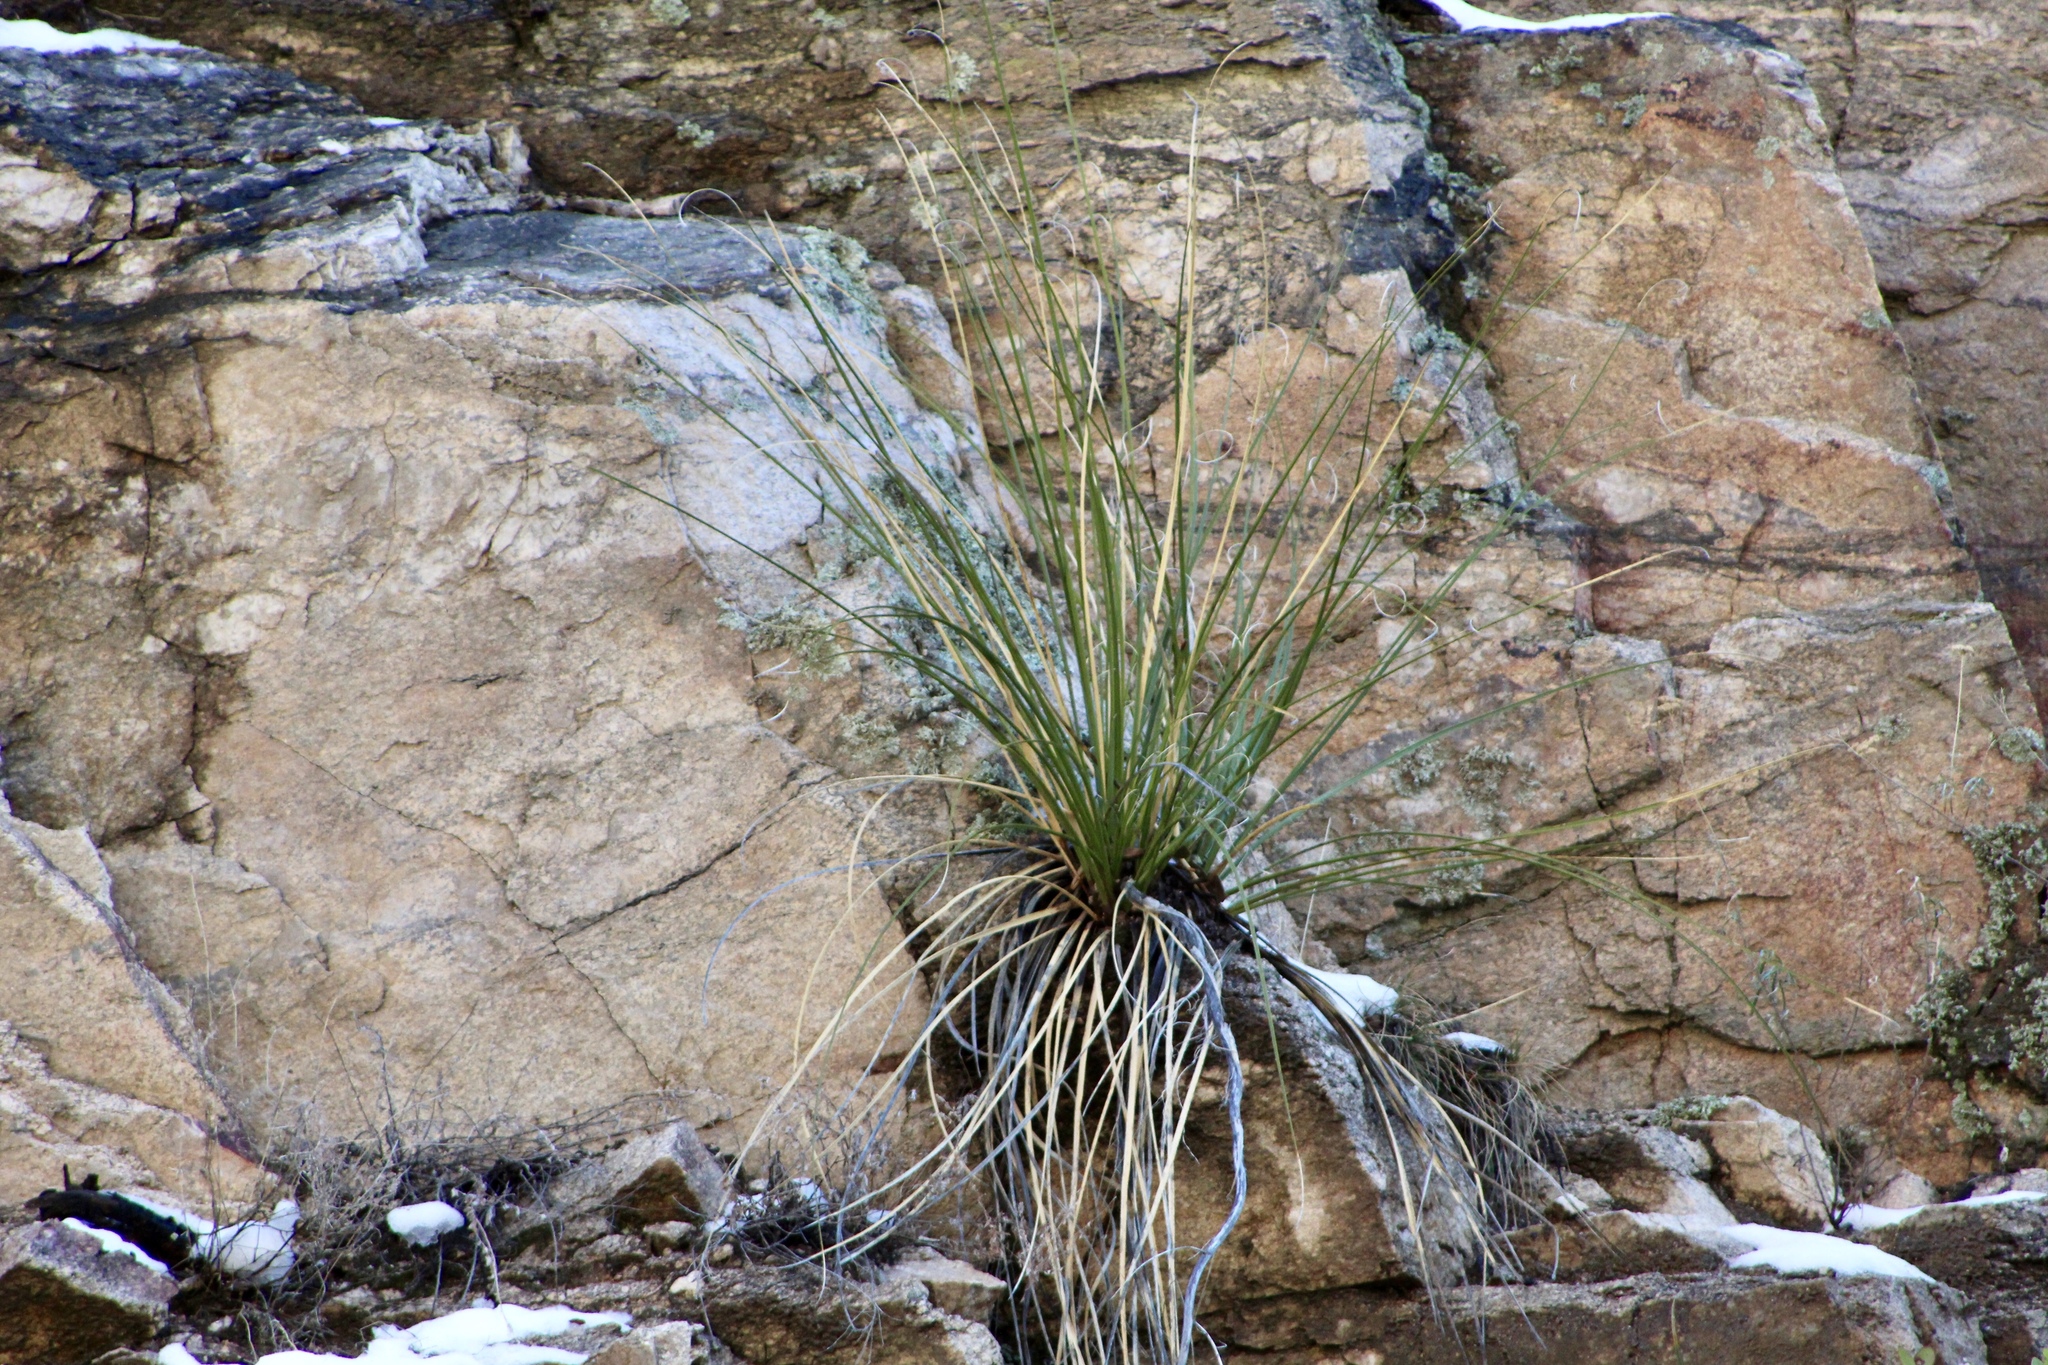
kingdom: Plantae
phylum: Tracheophyta
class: Liliopsida
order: Asparagales
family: Asparagaceae
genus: Nolina
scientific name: Nolina microcarpa
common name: Bear-grass
